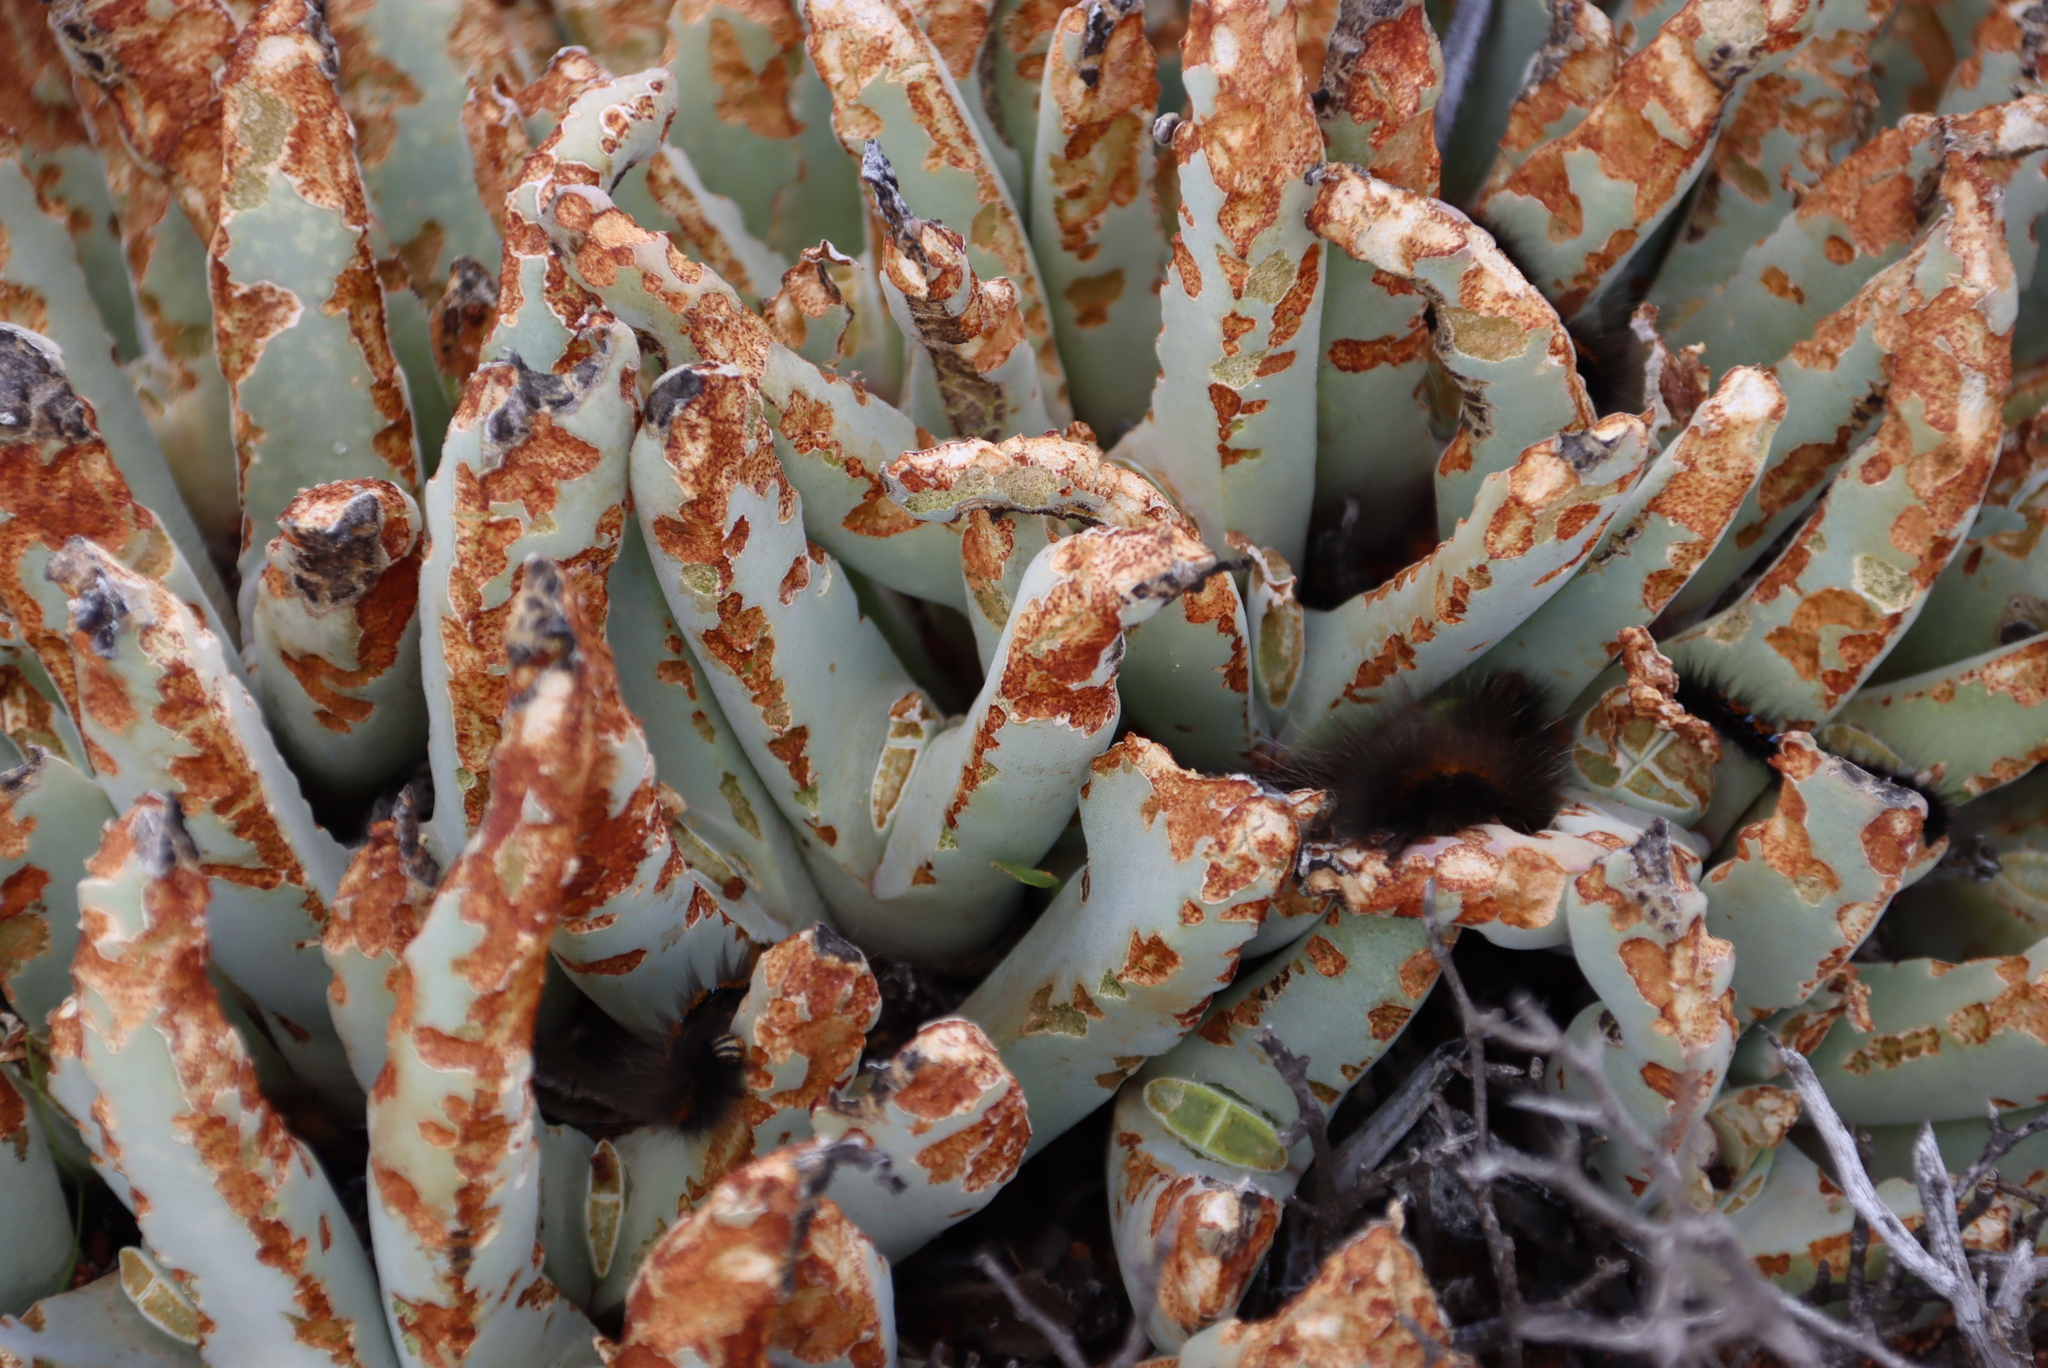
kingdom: Plantae
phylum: Tracheophyta
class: Magnoliopsida
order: Caryophyllales
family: Aizoaceae
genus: Cheiridopsis
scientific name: Cheiridopsis denticulata
